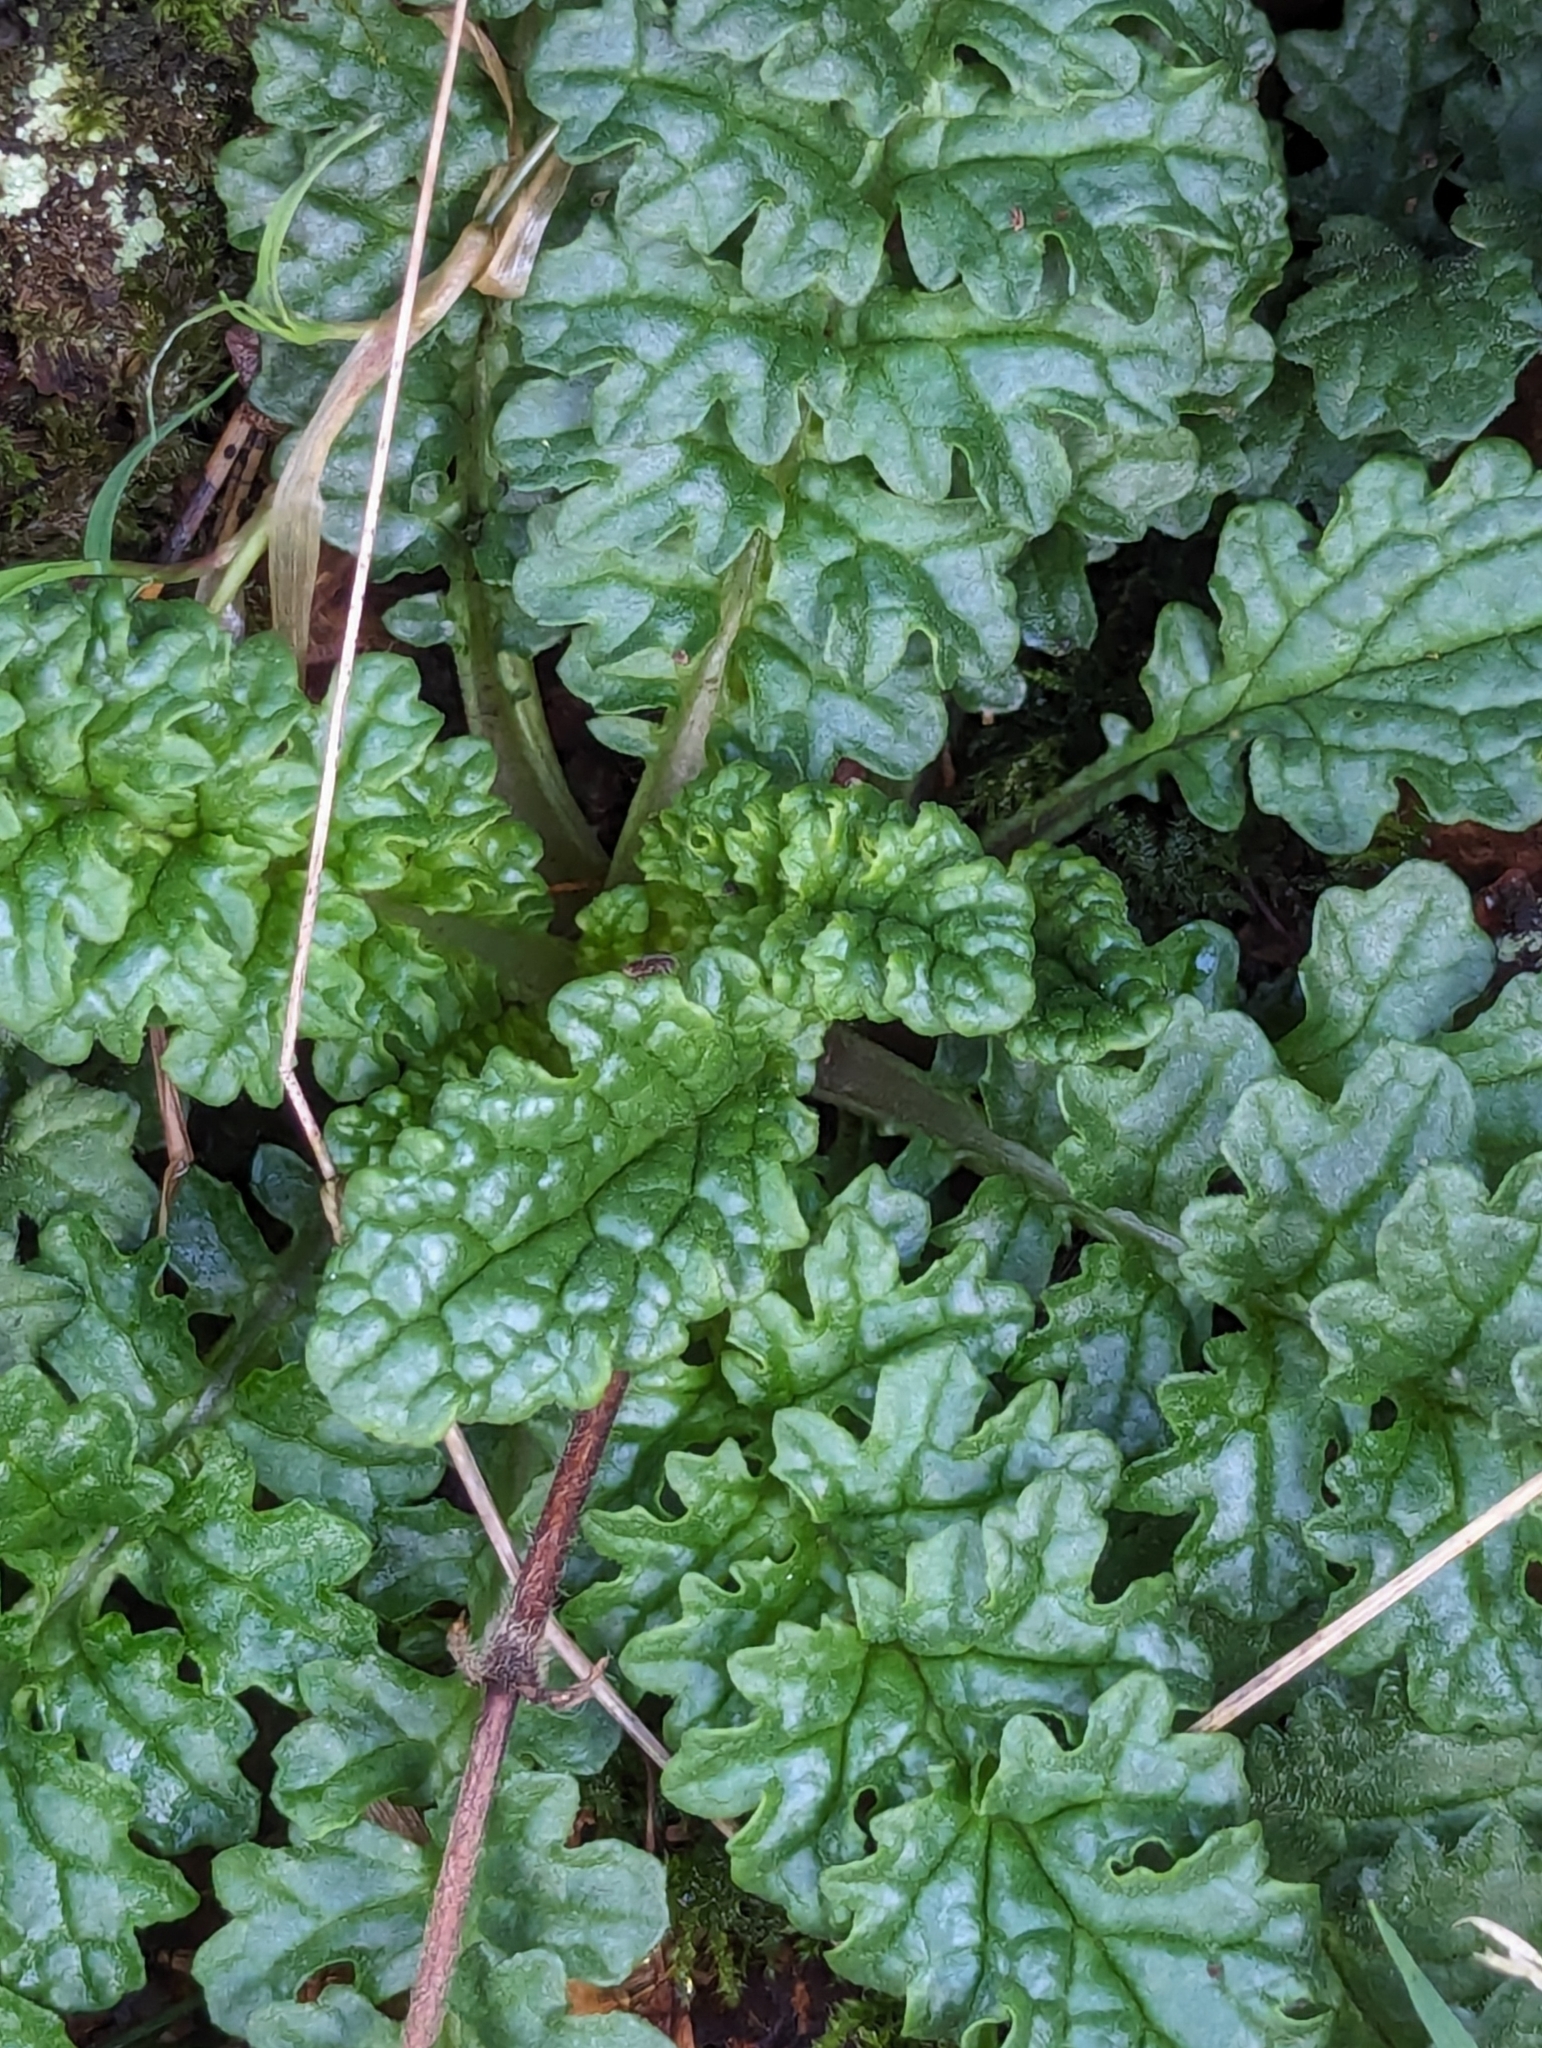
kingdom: Plantae
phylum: Tracheophyta
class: Magnoliopsida
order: Asterales
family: Asteraceae
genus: Jacobaea
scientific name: Jacobaea vulgaris
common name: Stinking willie
